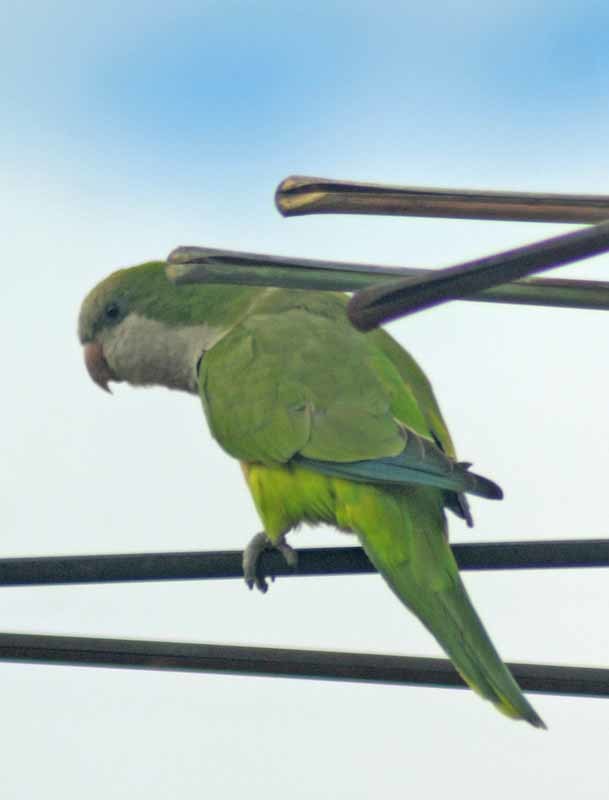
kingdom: Animalia
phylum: Chordata
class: Aves
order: Psittaciformes
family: Psittacidae
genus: Myiopsitta
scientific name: Myiopsitta monachus
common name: Monk parakeet
